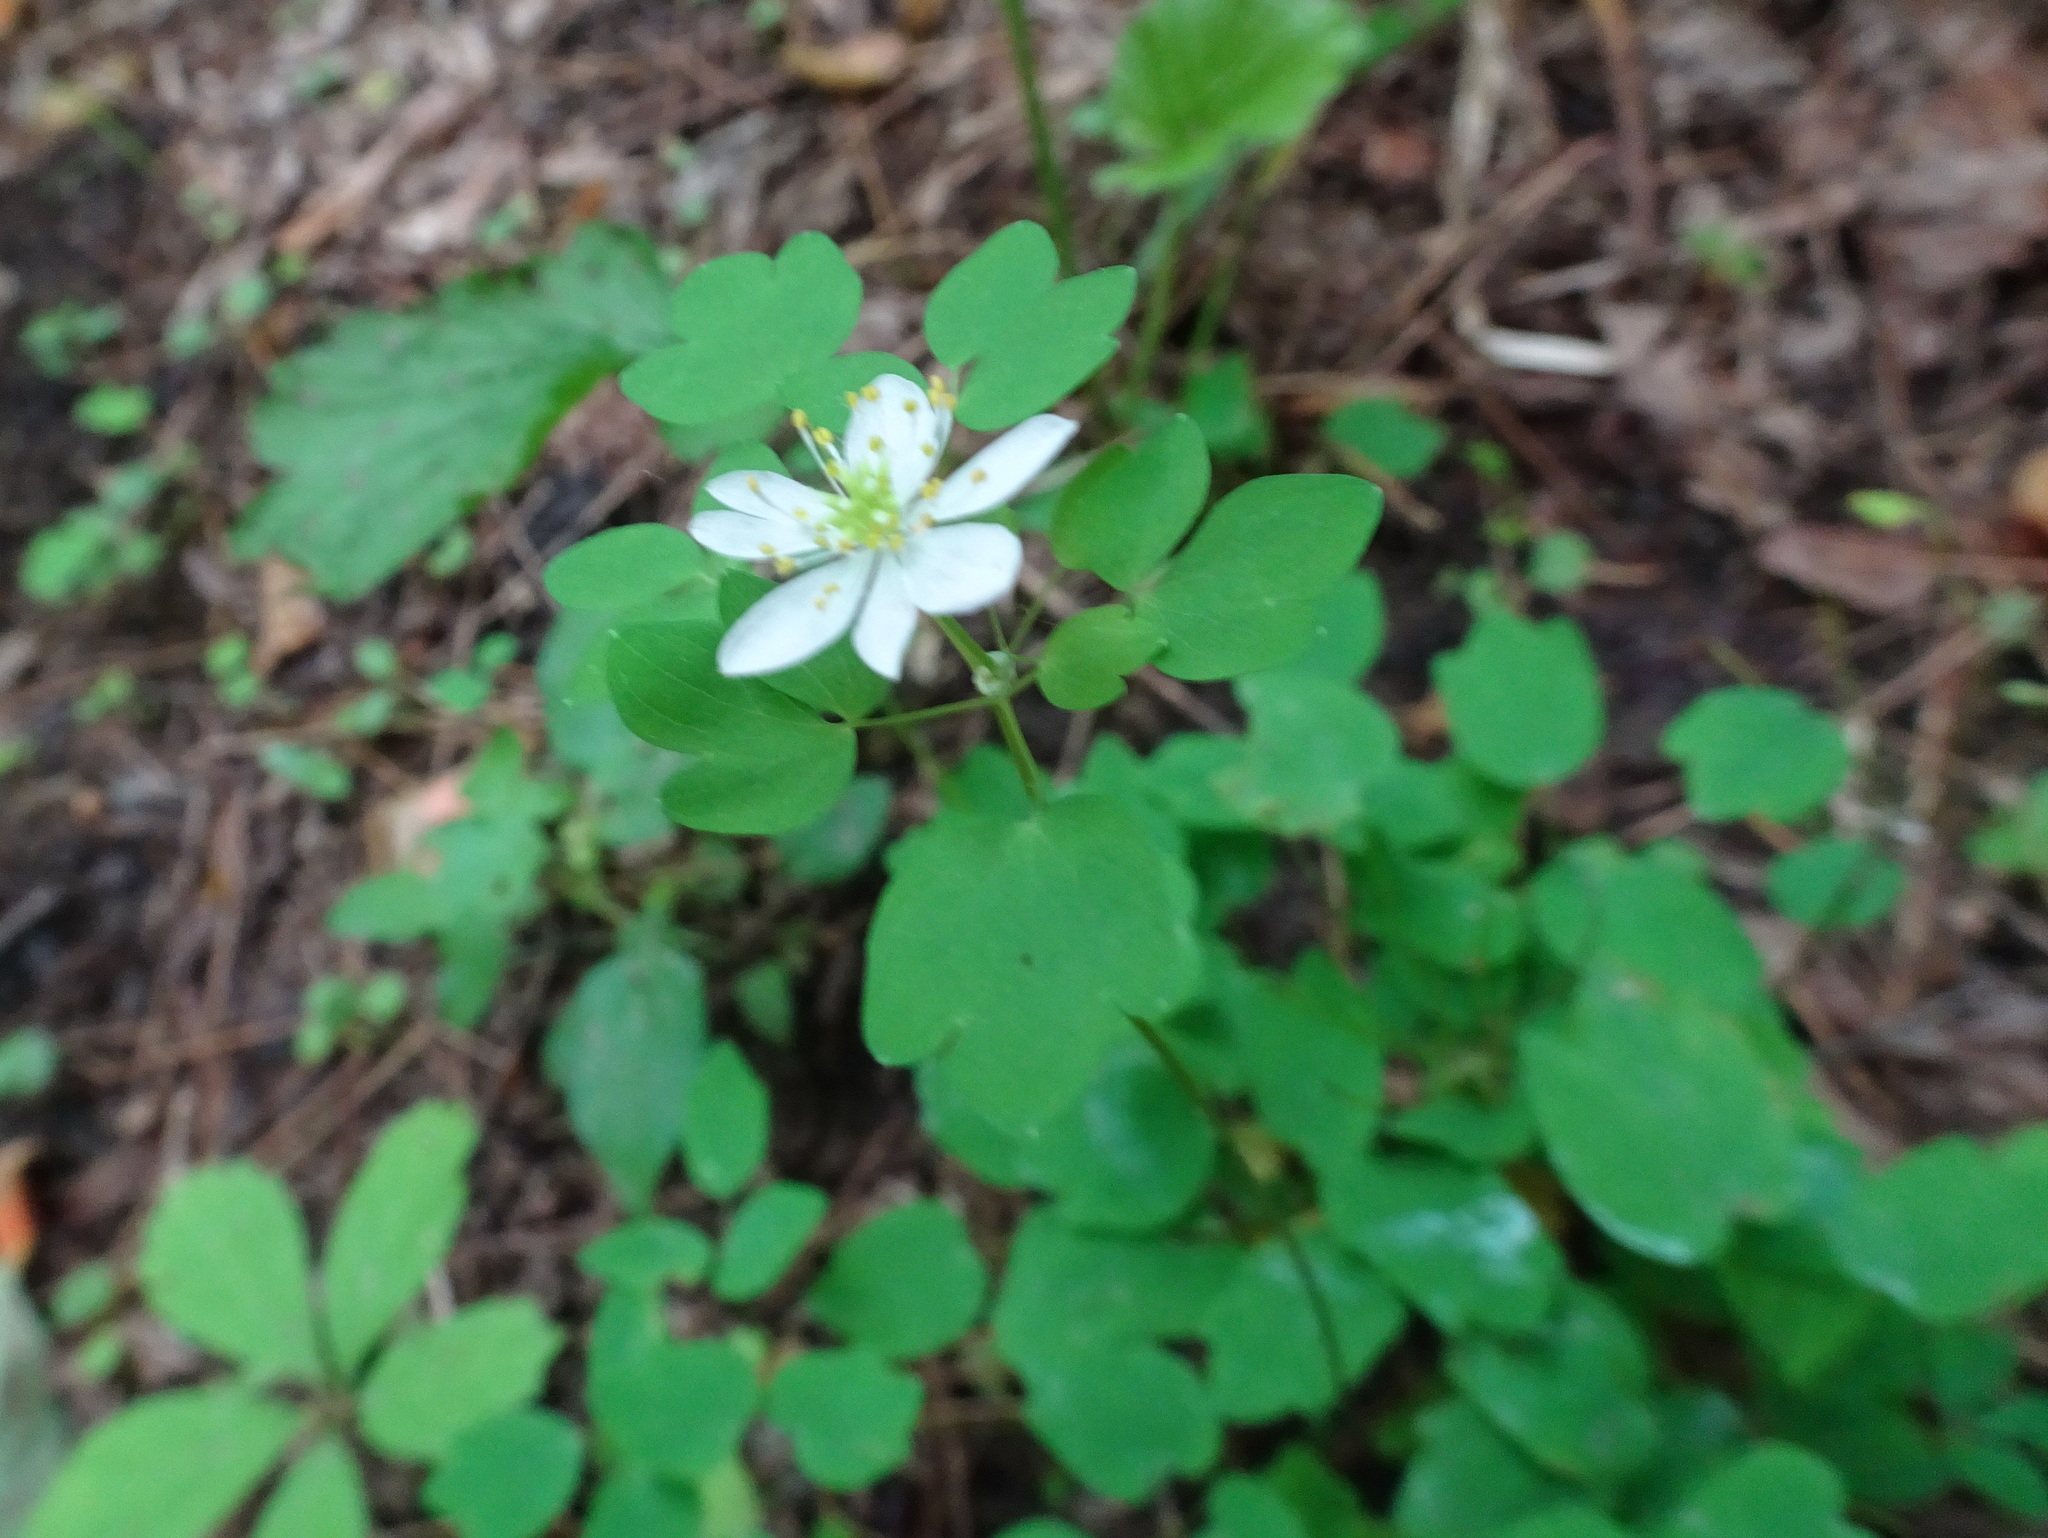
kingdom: Plantae
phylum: Tracheophyta
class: Magnoliopsida
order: Ranunculales
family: Ranunculaceae
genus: Thalictrum
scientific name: Thalictrum thalictroides
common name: Rue-anemone
